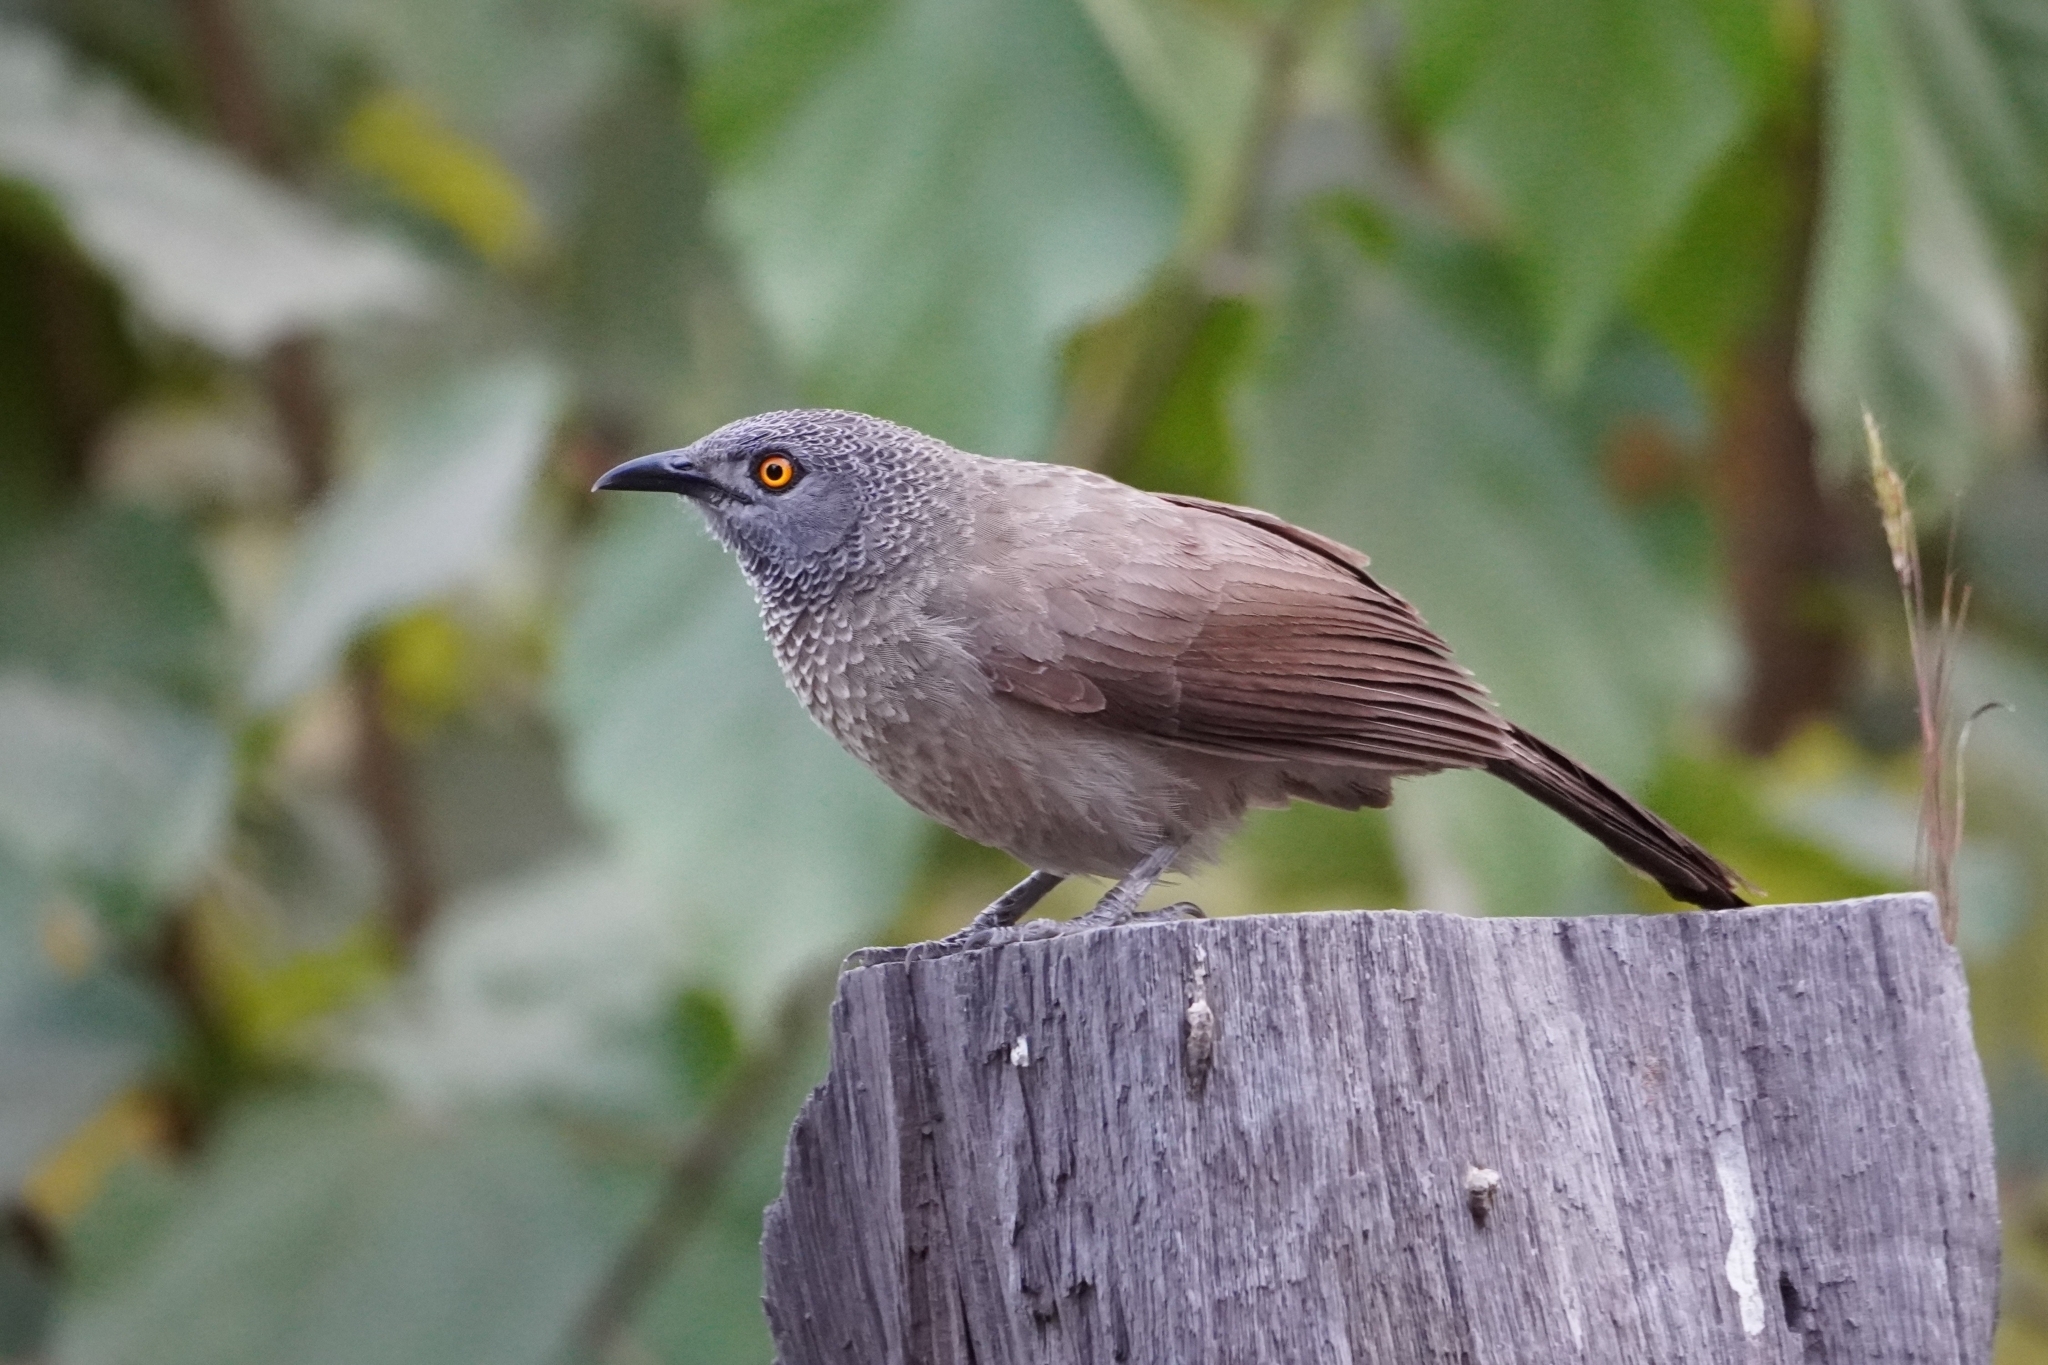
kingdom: Animalia
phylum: Chordata
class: Aves
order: Passeriformes
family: Leiothrichidae
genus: Turdoides
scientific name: Turdoides plebejus
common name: Brown babbler
